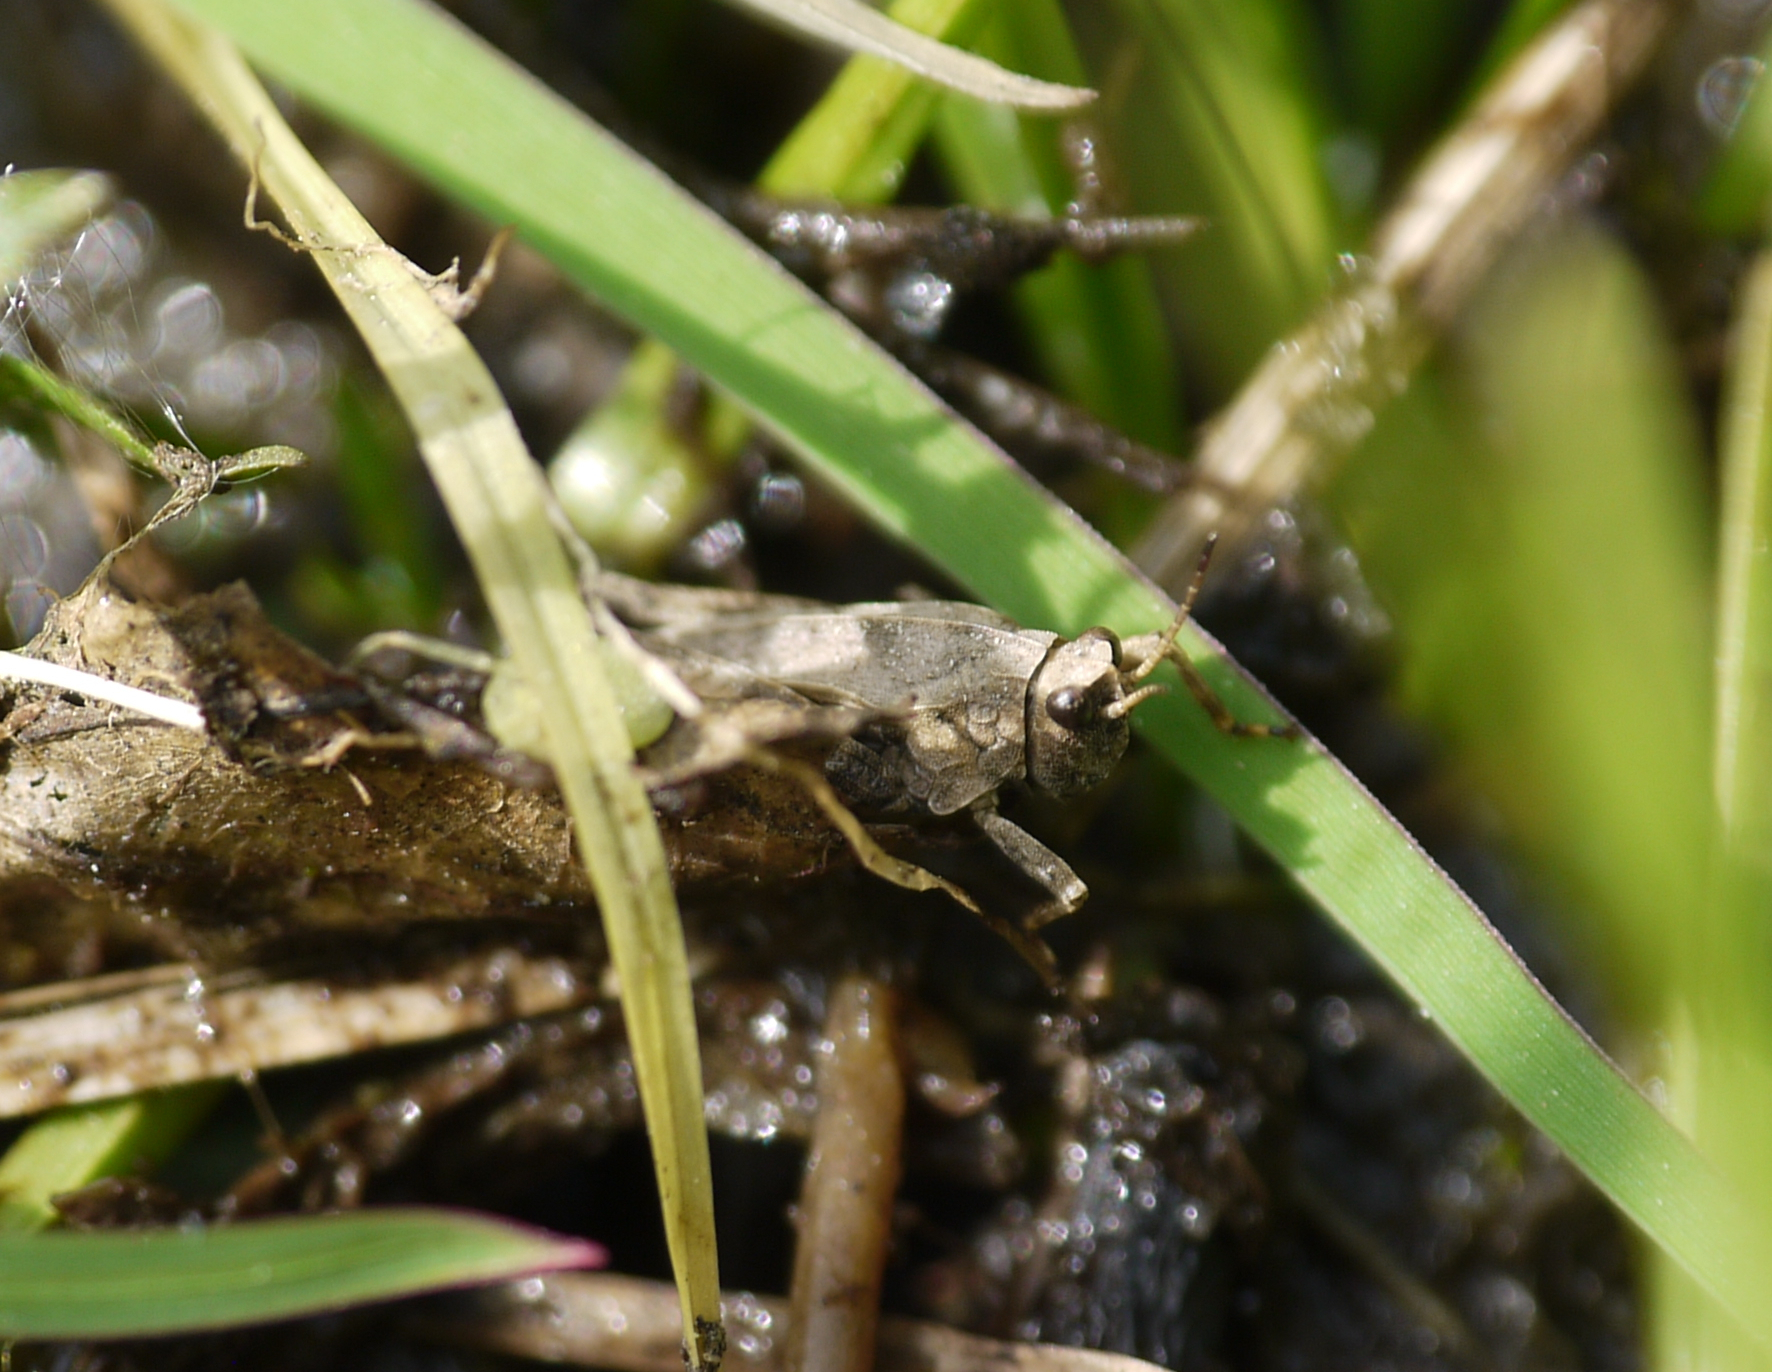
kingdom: Animalia
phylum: Arthropoda
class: Insecta
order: Orthoptera
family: Tetrigidae
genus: Tetrix
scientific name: Tetrix undulata
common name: Common groundhopper
